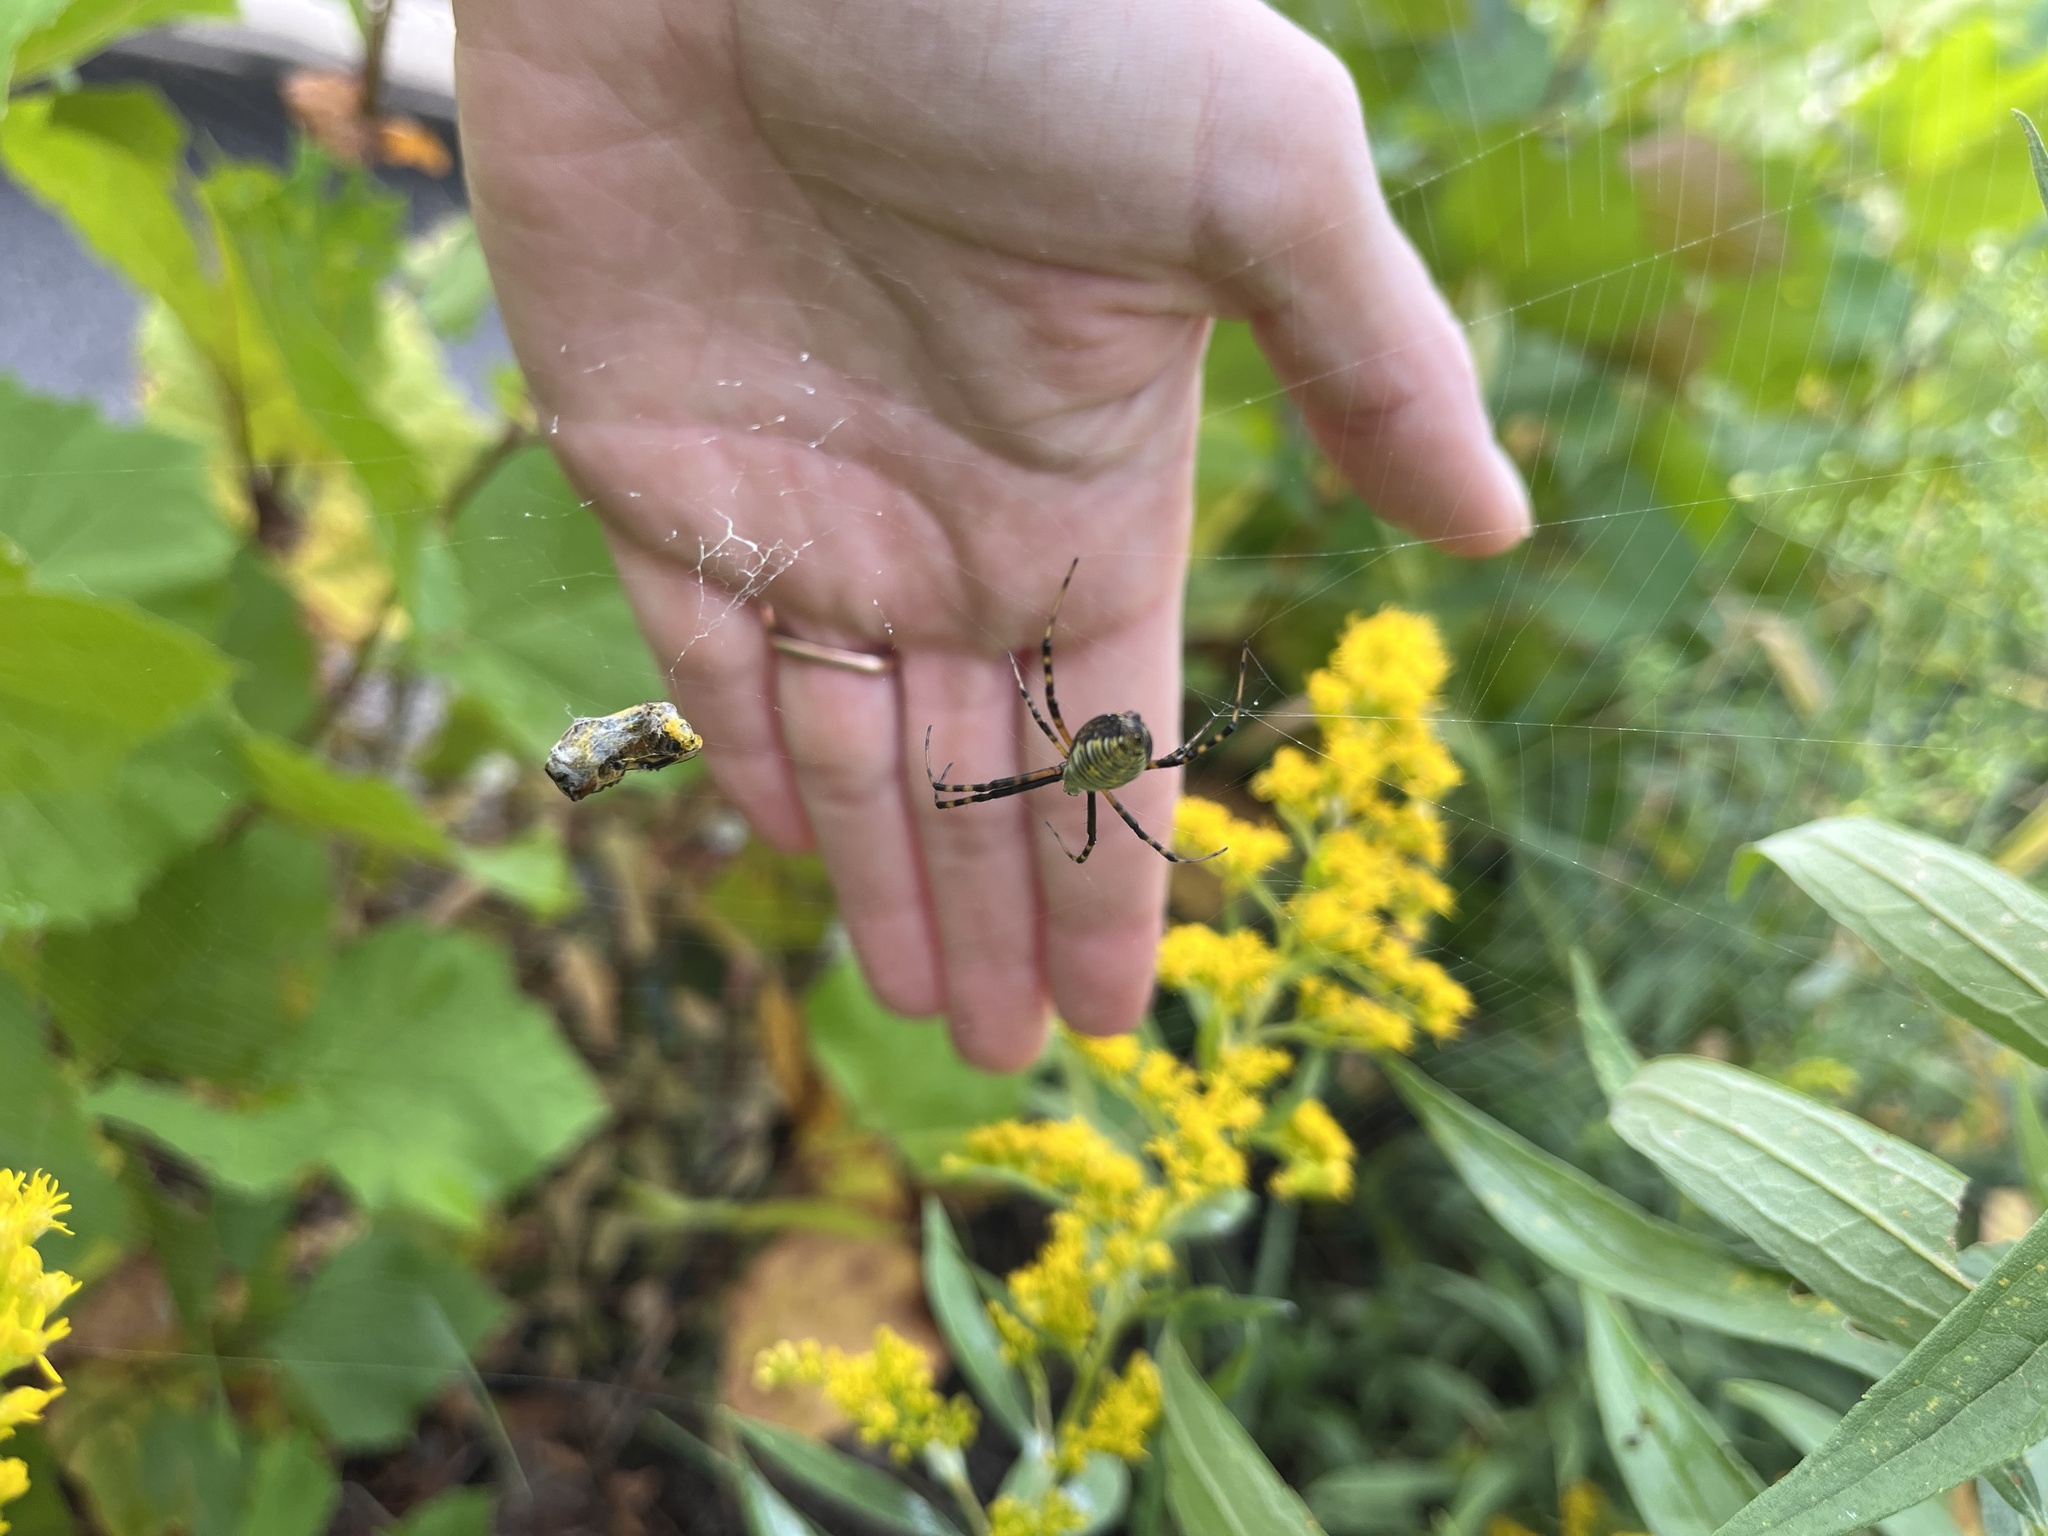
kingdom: Animalia
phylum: Arthropoda
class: Arachnida
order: Araneae
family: Araneidae
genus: Argiope
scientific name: Argiope trifasciata
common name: Banded garden spider
